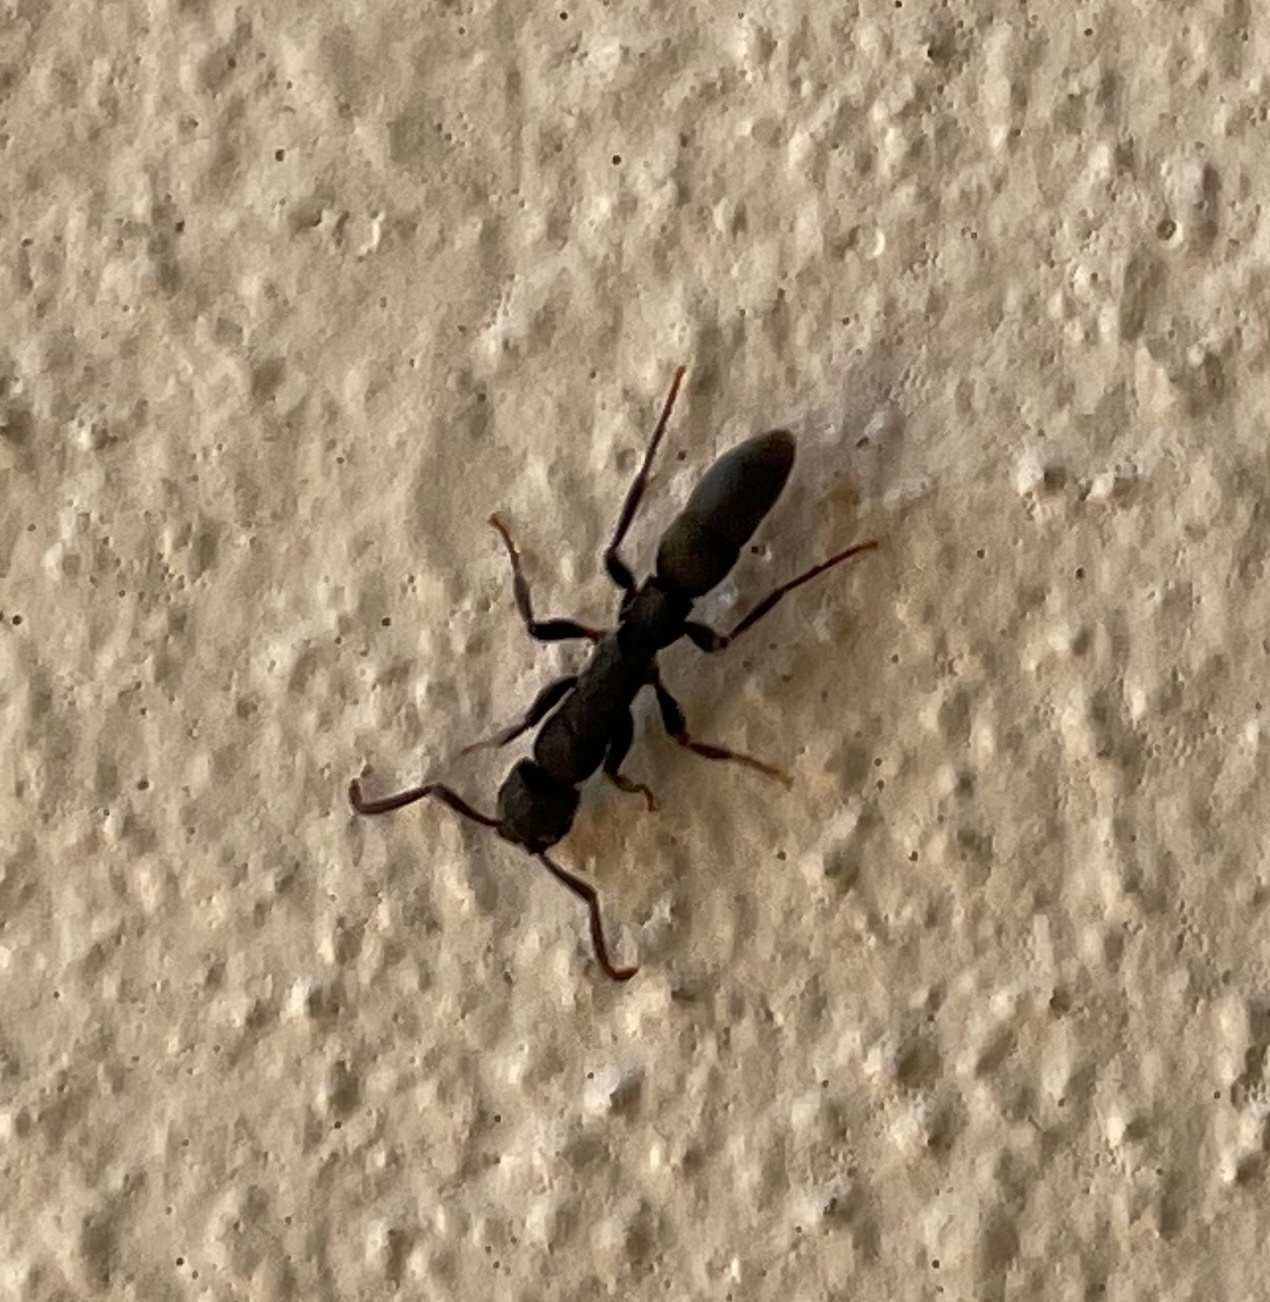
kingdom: Animalia
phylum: Arthropoda
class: Insecta
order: Hymenoptera
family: Formicidae
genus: Platythyrea
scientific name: Platythyrea punctata
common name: Ant
